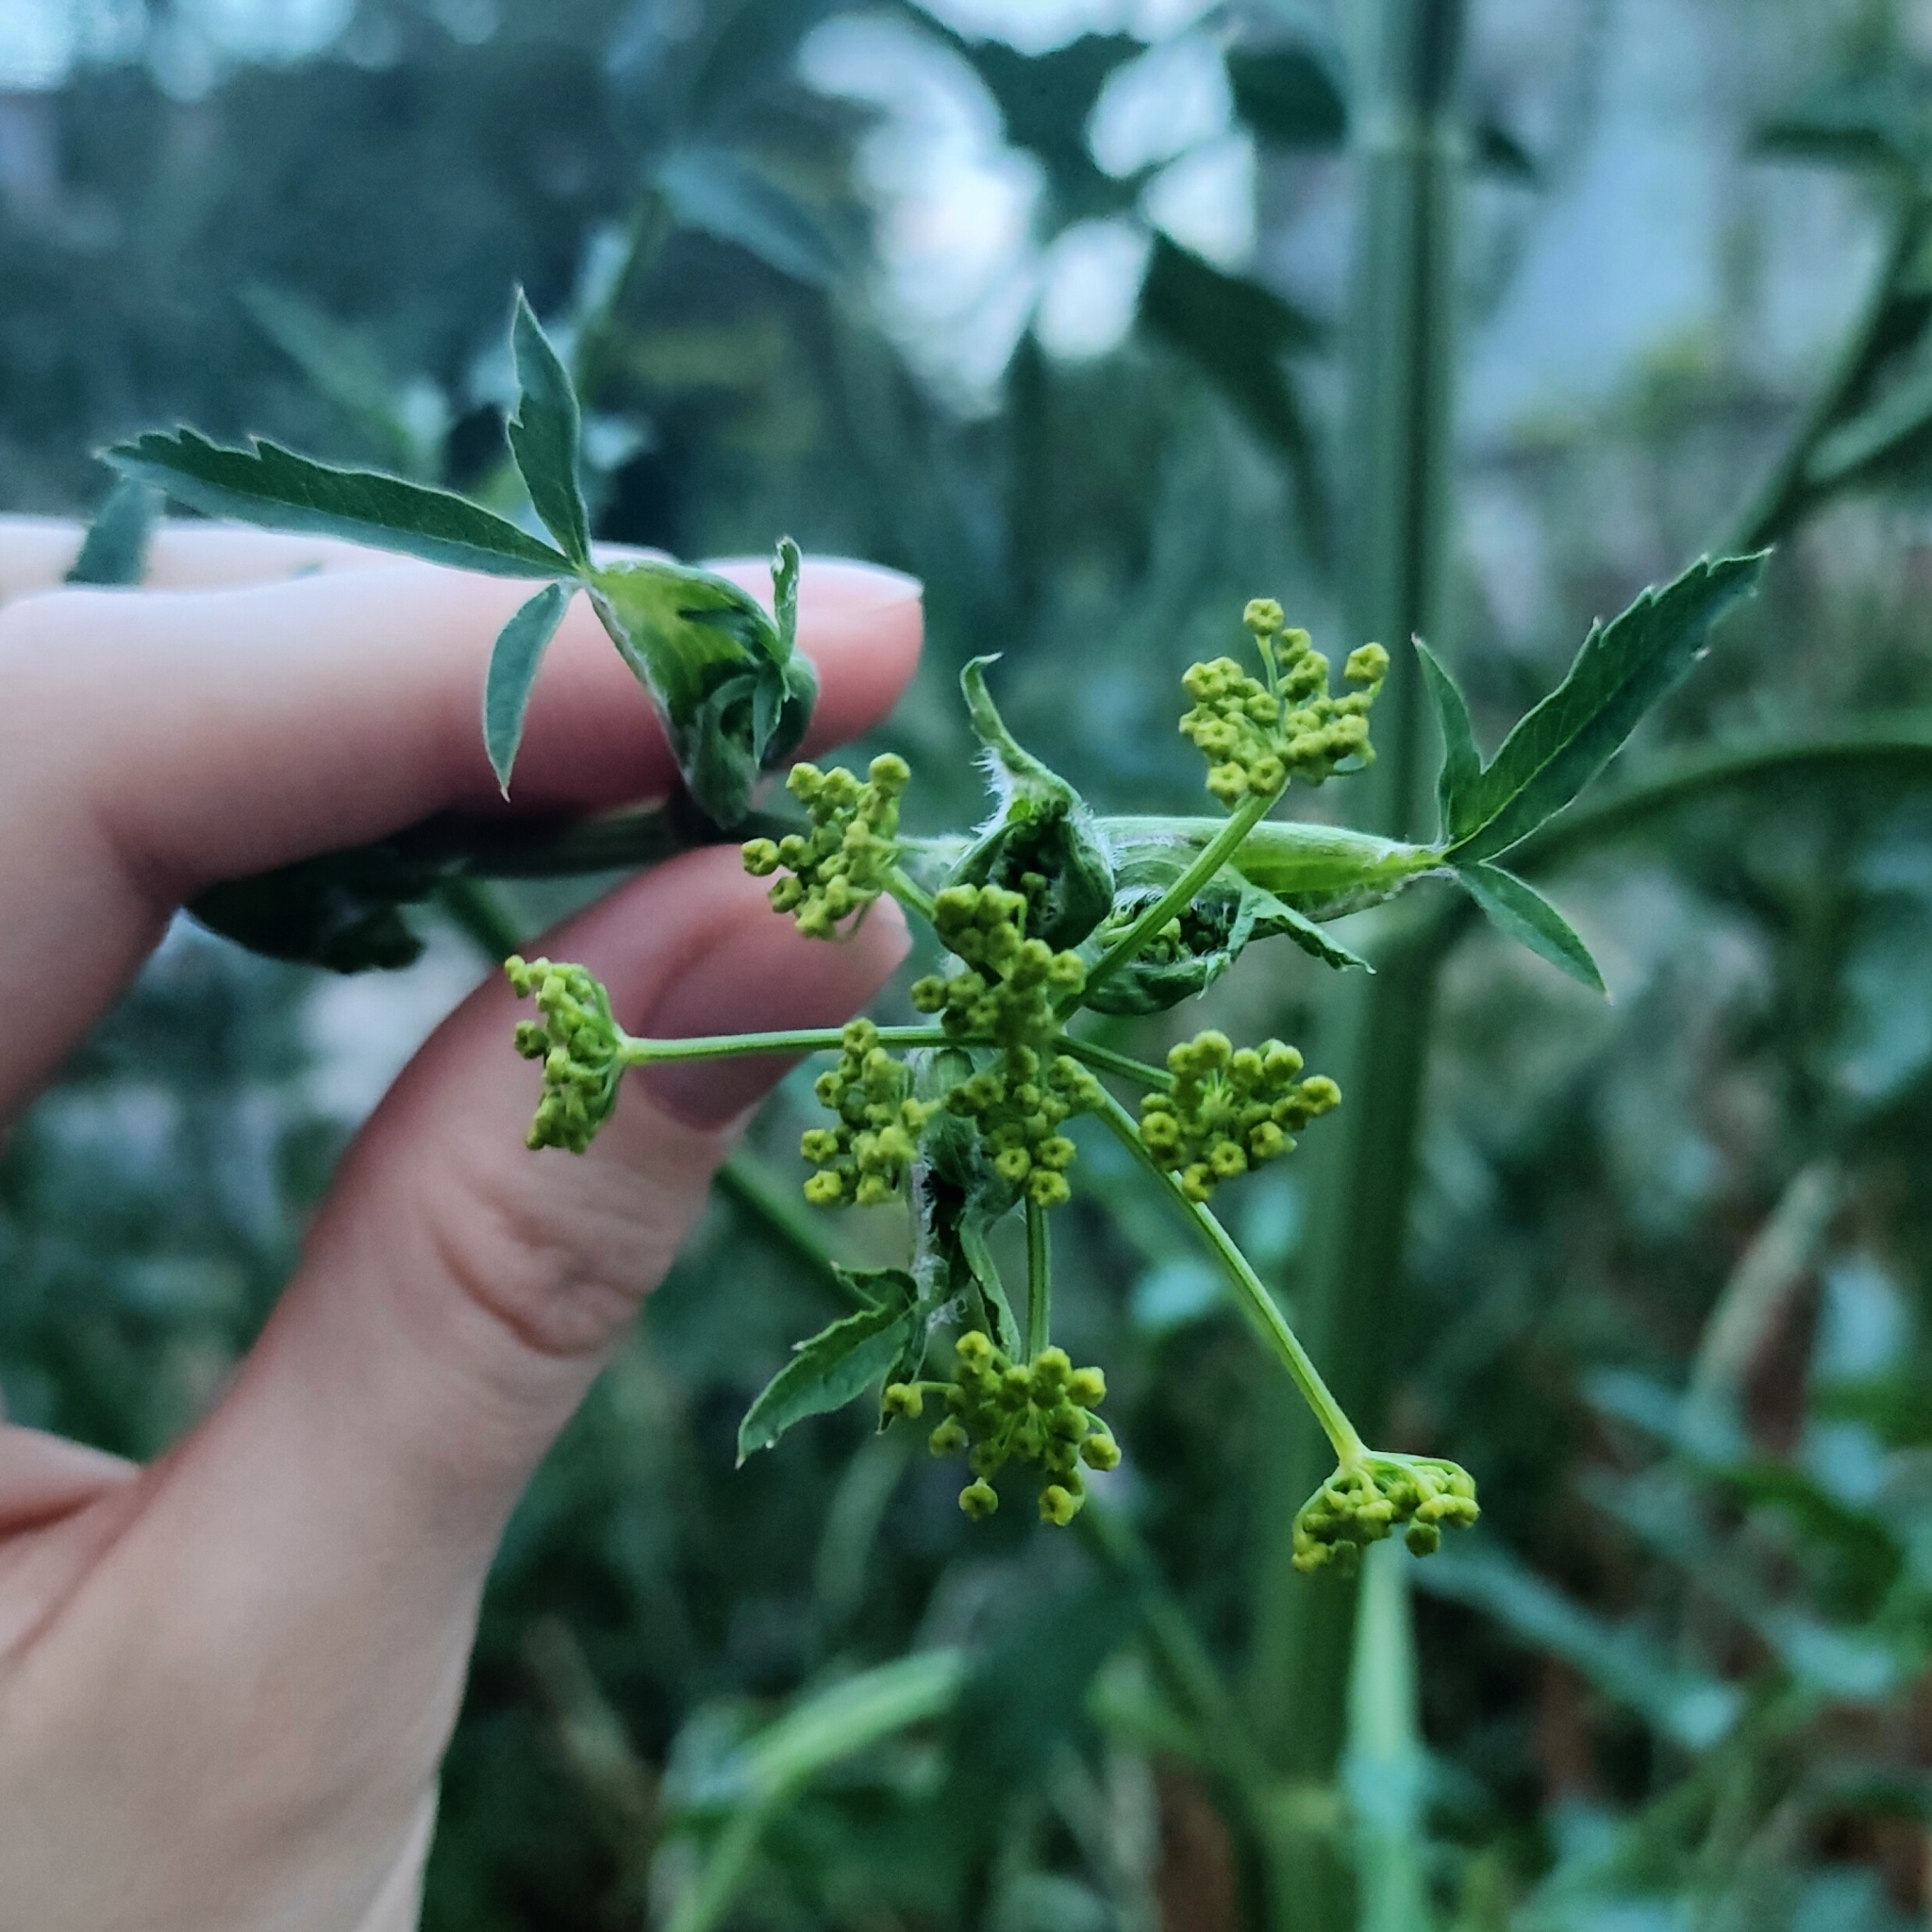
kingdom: Plantae
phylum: Tracheophyta
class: Magnoliopsida
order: Apiales
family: Apiaceae
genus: Pastinaca
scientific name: Pastinaca sativa
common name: Wild parsnip
